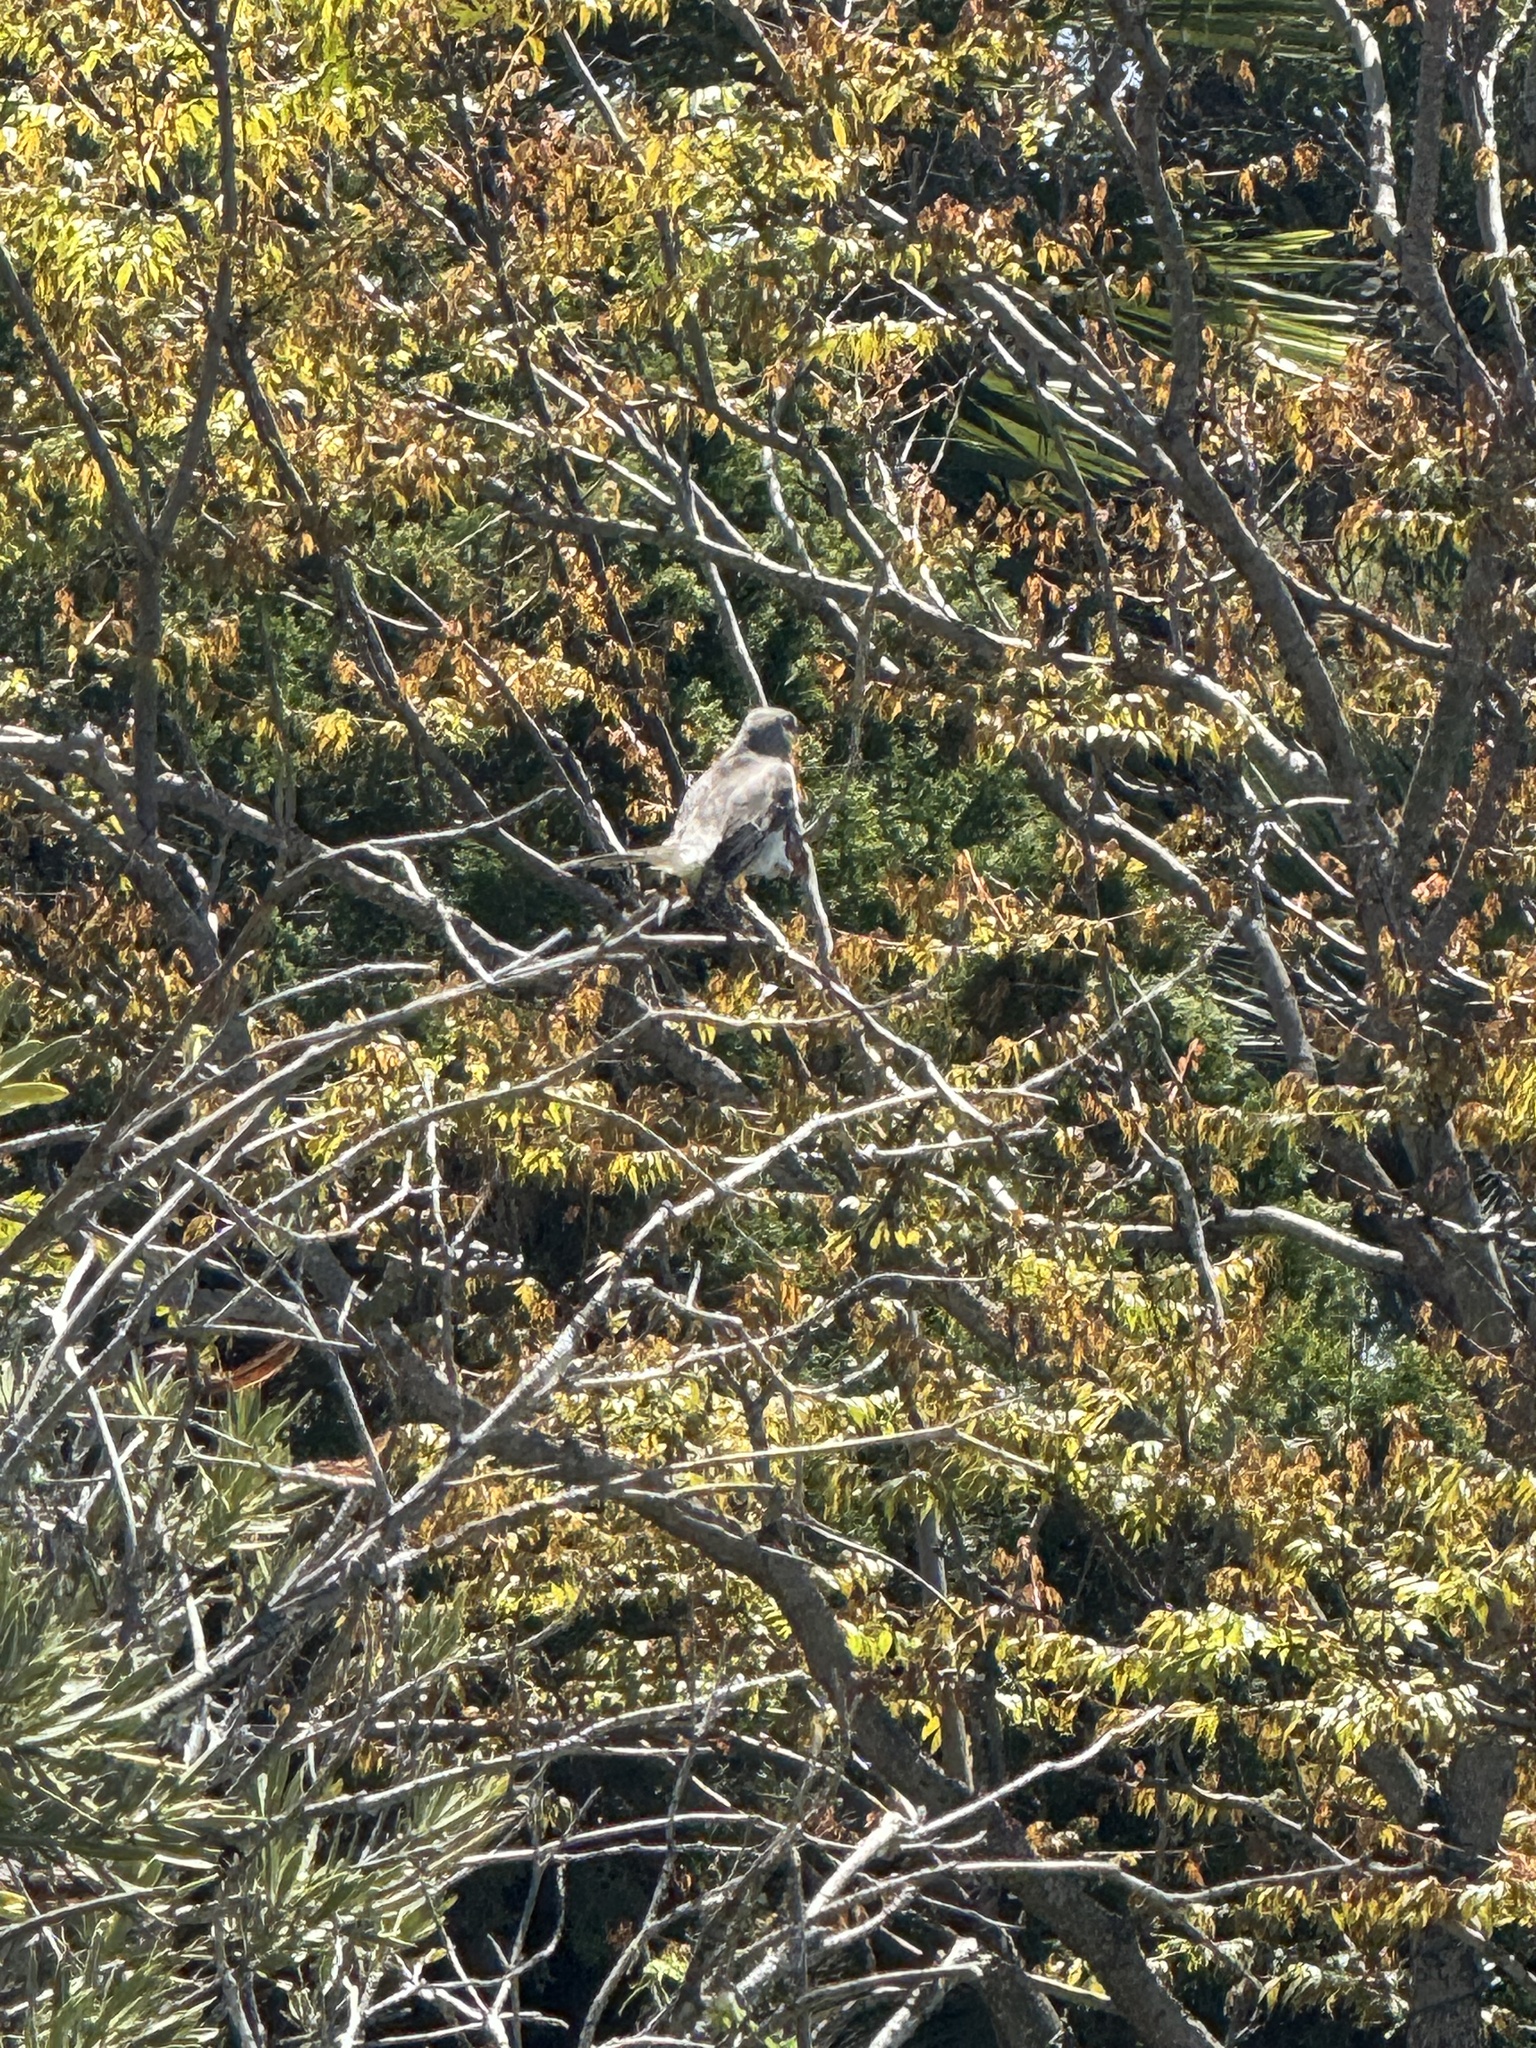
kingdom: Animalia
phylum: Chordata
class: Aves
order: Passeriformes
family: Mimidae
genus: Mimus
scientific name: Mimus polyglottos
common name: Northern mockingbird
